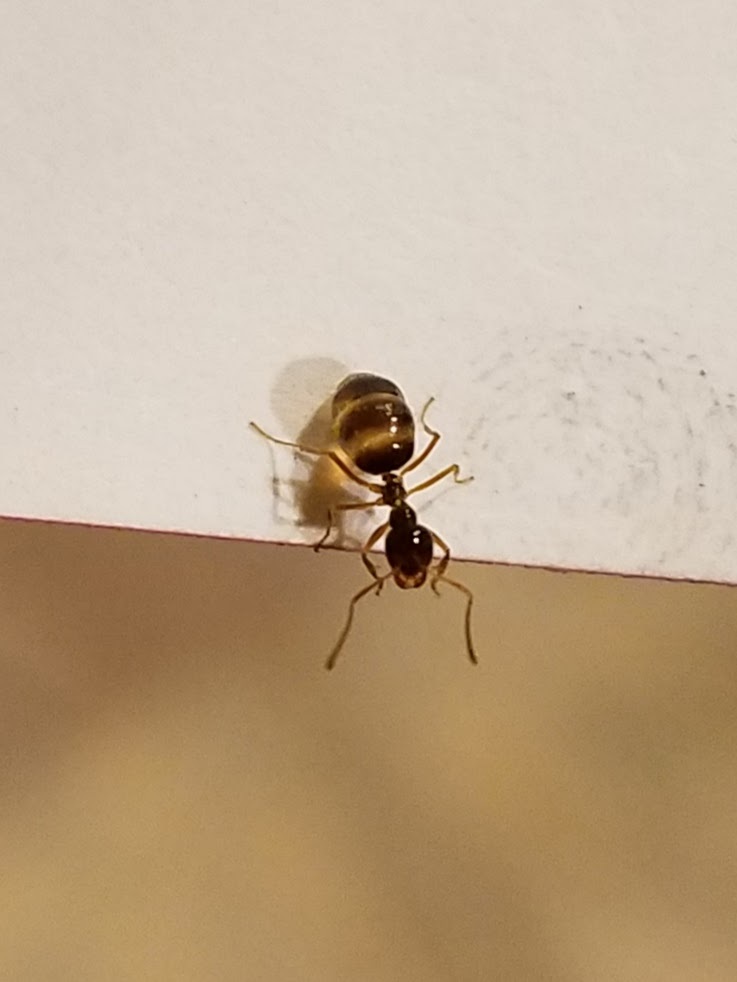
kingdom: Animalia
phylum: Arthropoda
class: Insecta
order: Hymenoptera
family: Formicidae
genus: Prenolepis
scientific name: Prenolepis imparis
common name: Small honey ant
